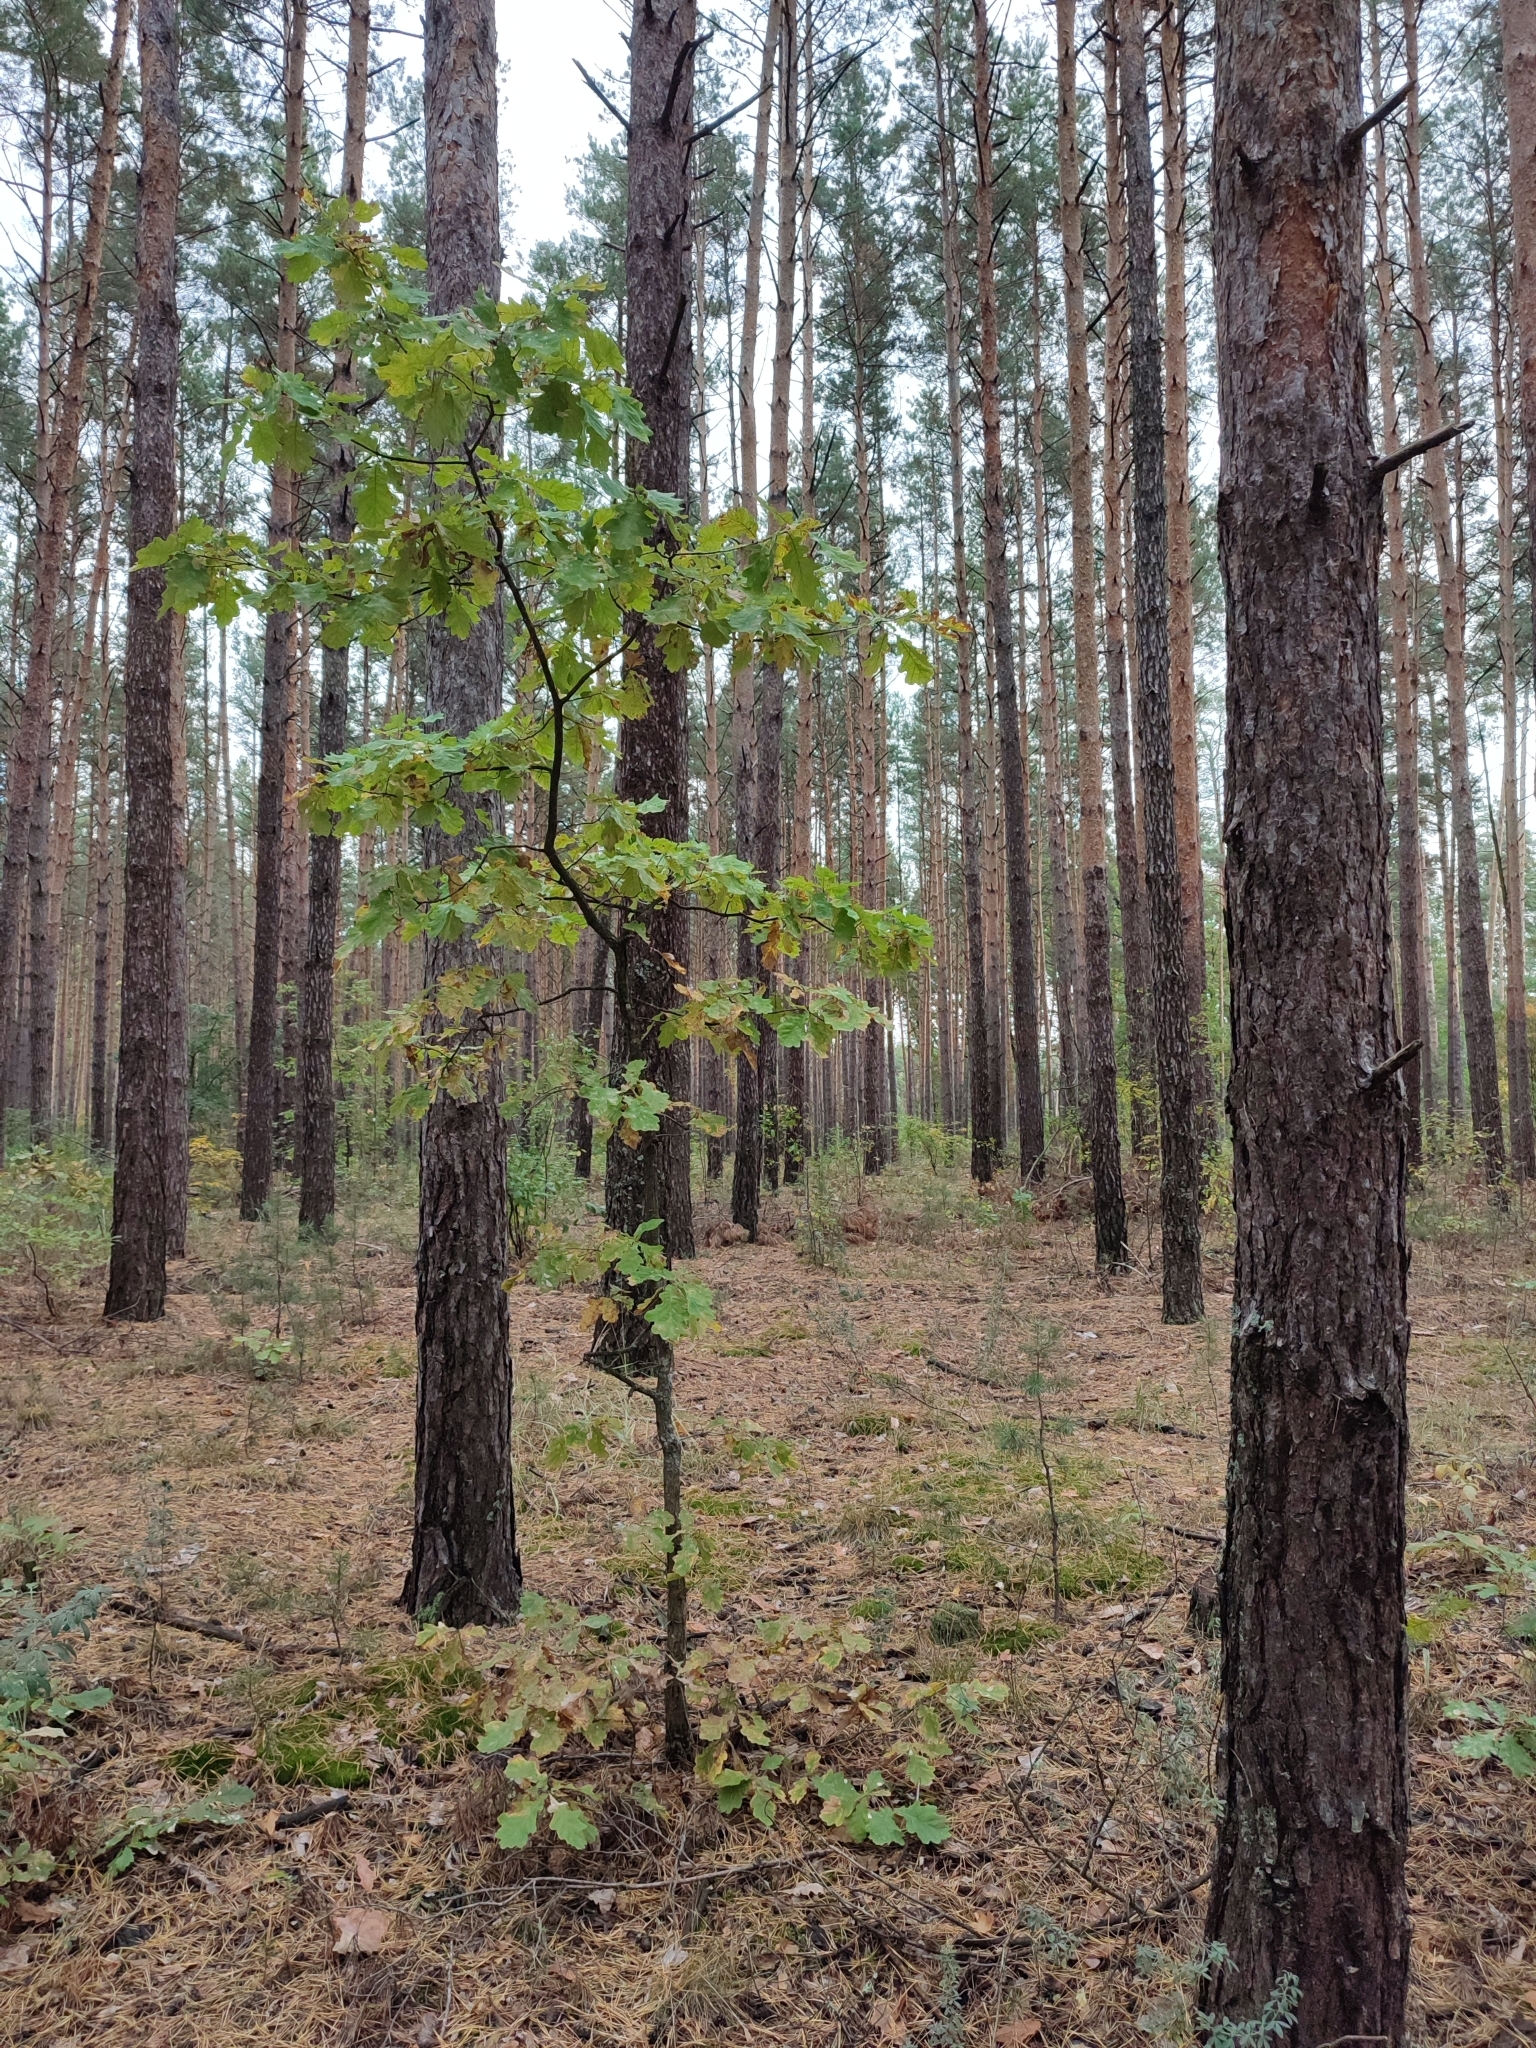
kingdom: Plantae
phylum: Tracheophyta
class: Magnoliopsida
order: Fagales
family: Fagaceae
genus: Quercus
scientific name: Quercus robur
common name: Pedunculate oak
